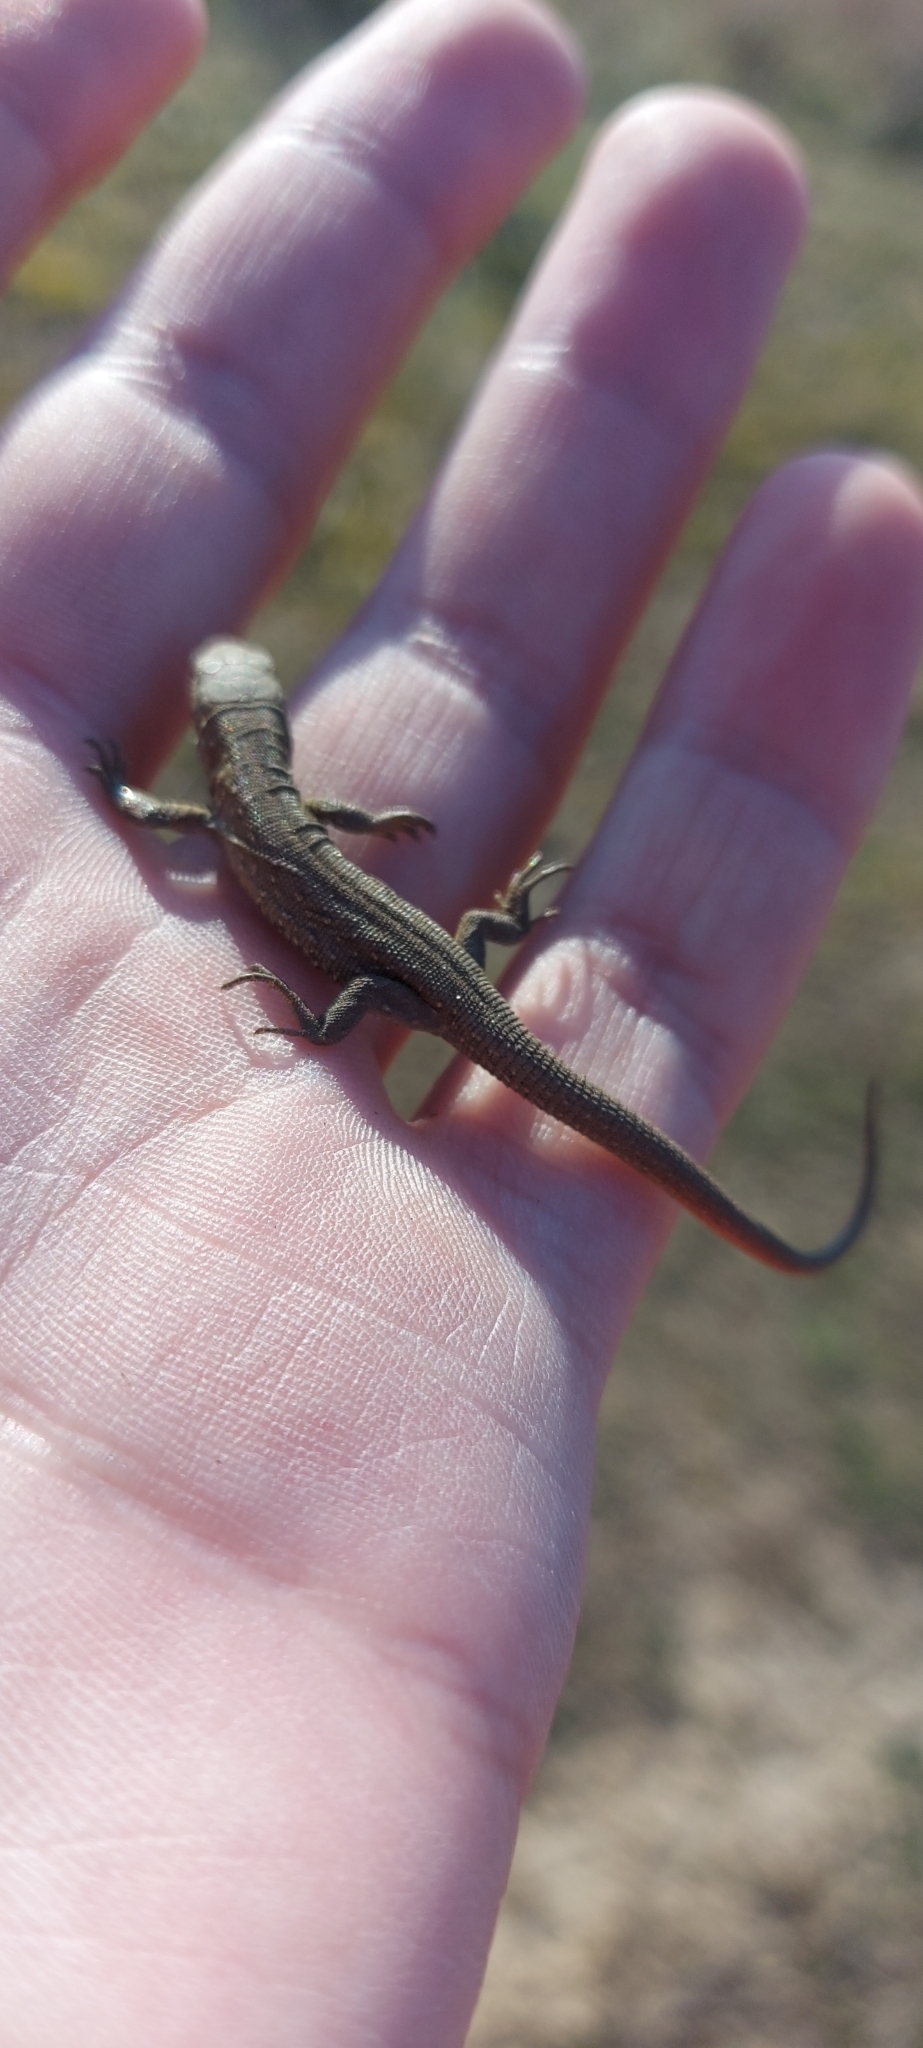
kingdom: Animalia
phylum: Chordata
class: Squamata
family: Lacertidae
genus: Lacerta
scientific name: Lacerta agilis
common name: Sand lizard
